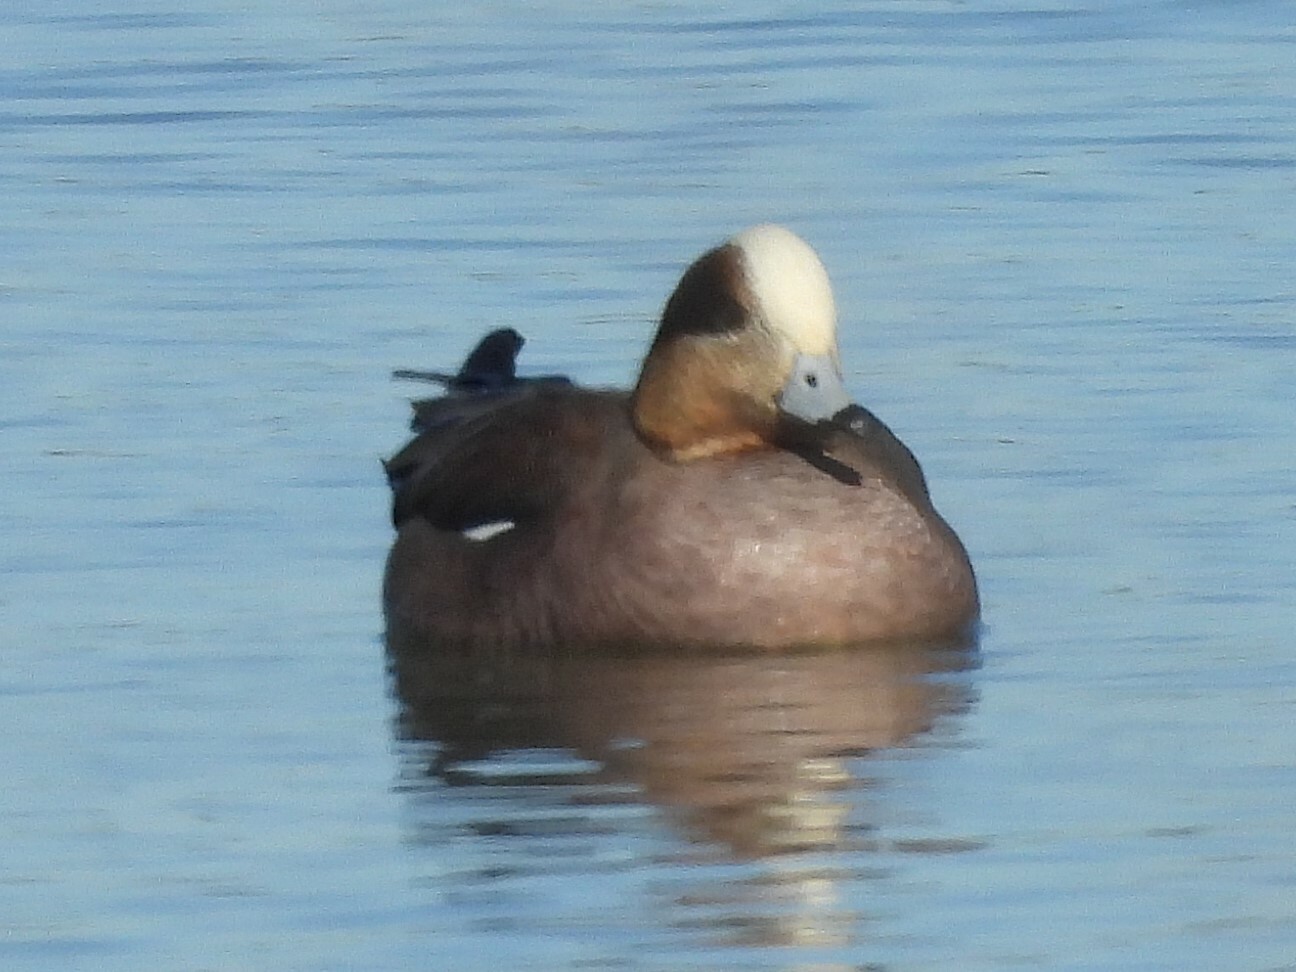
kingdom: Animalia
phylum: Chordata
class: Aves
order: Anseriformes
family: Anatidae
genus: Mareca
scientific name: Mareca americana
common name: American wigeon
